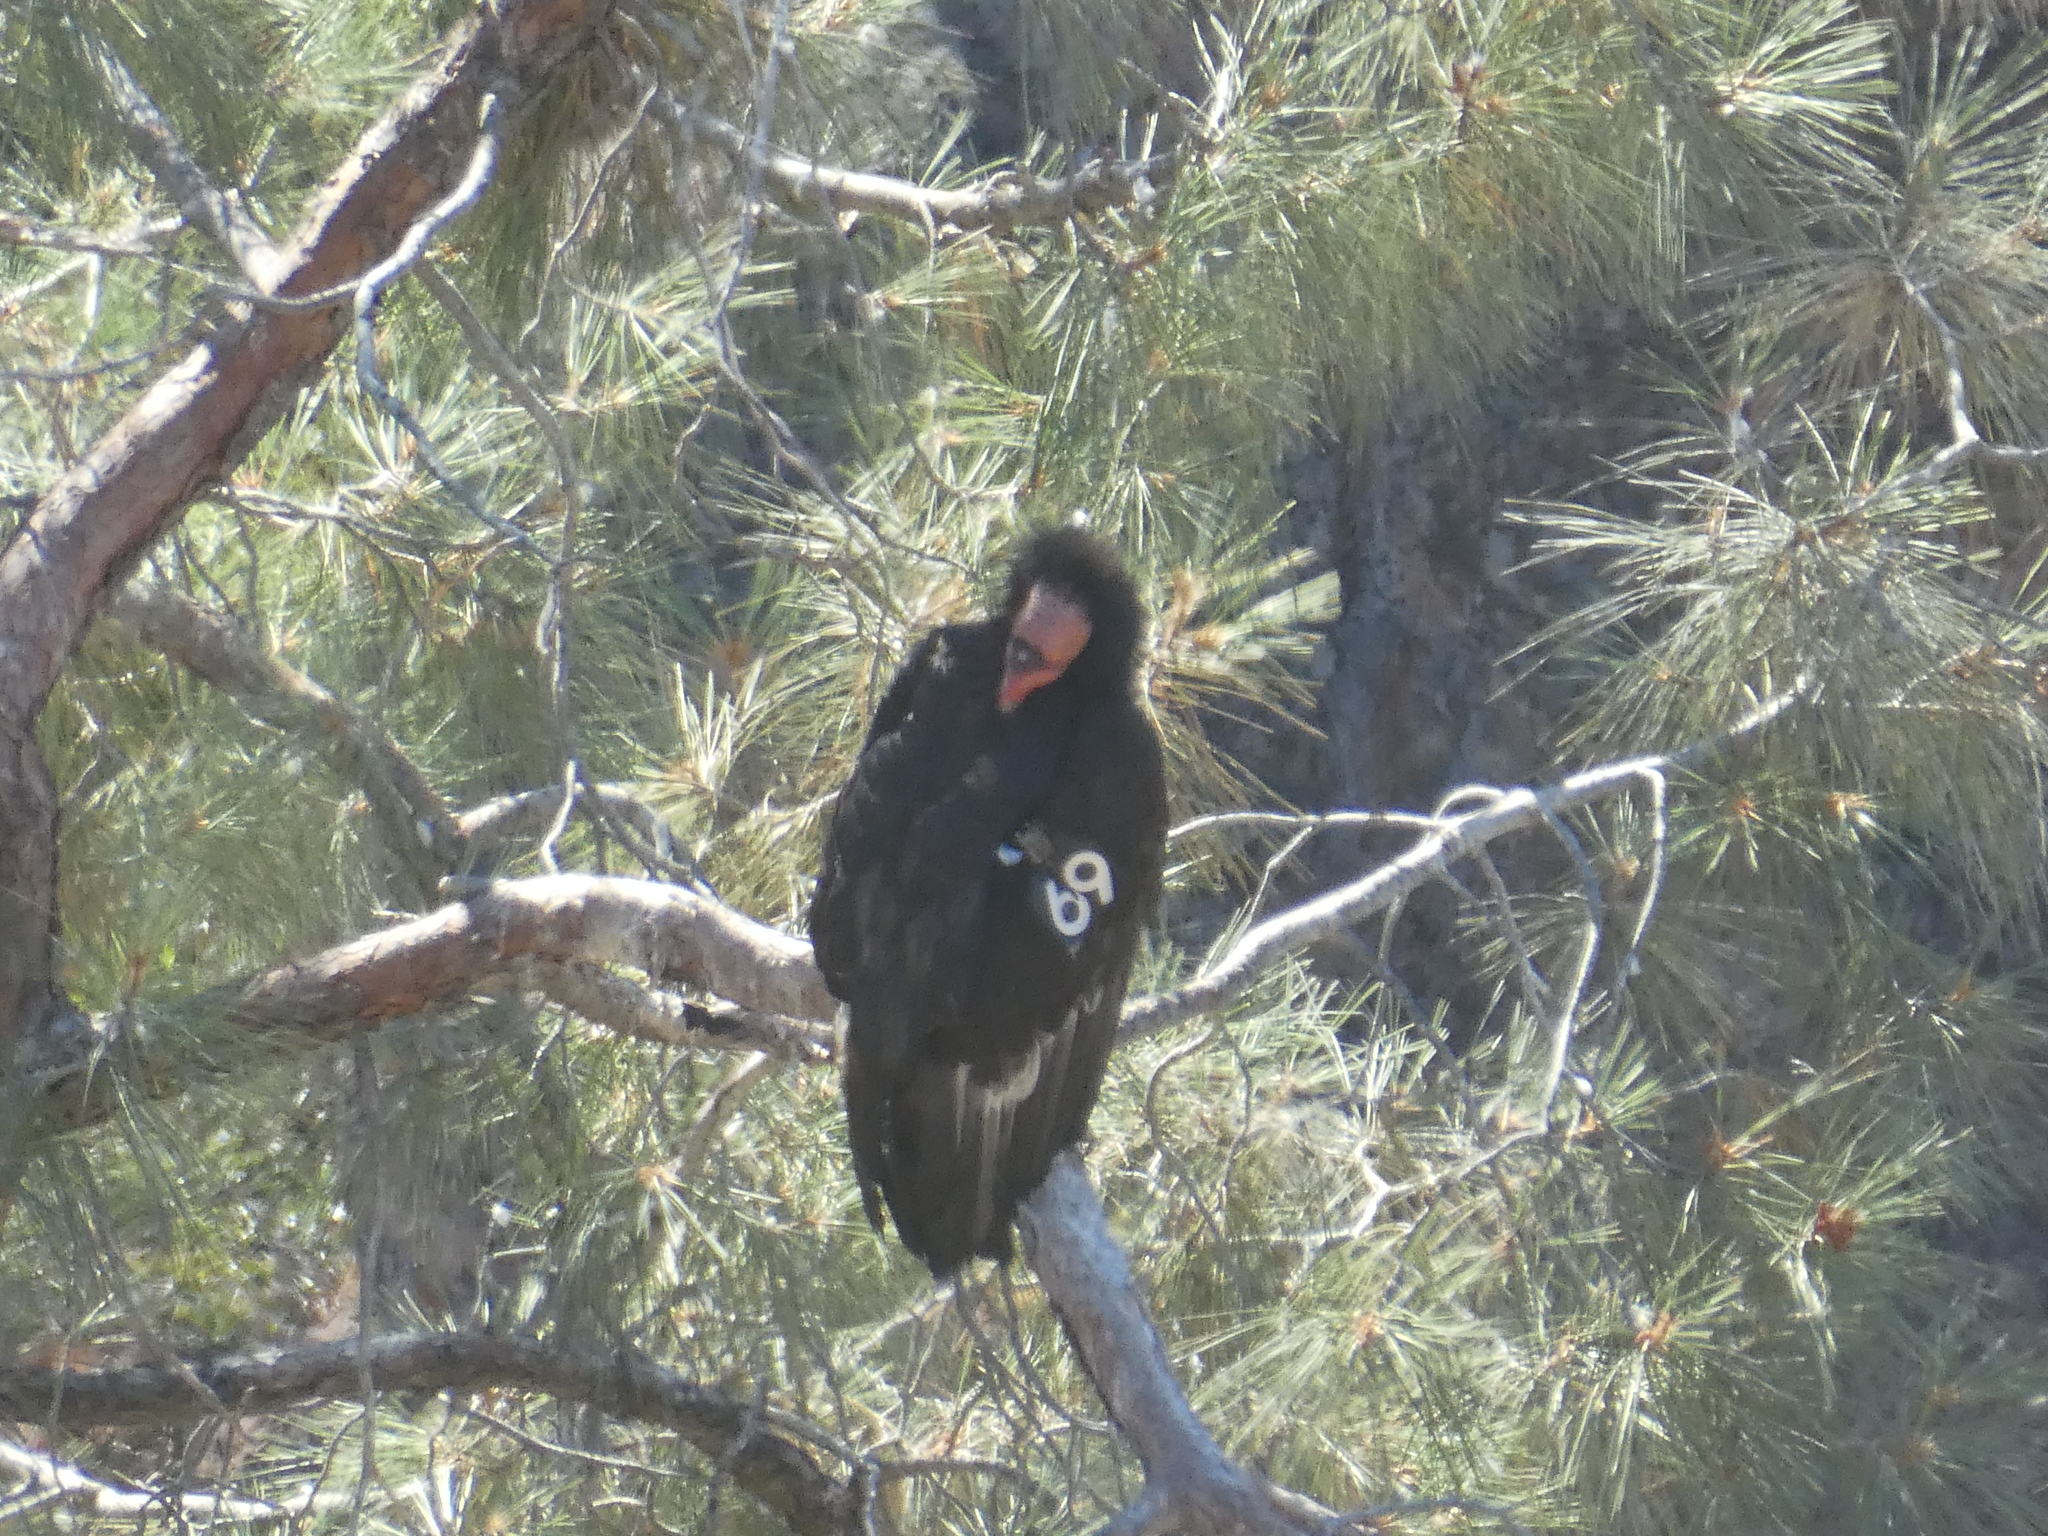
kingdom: Animalia
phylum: Chordata
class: Aves
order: Accipitriformes
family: Cathartidae
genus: Gymnogyps
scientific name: Gymnogyps californianus
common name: California condor
